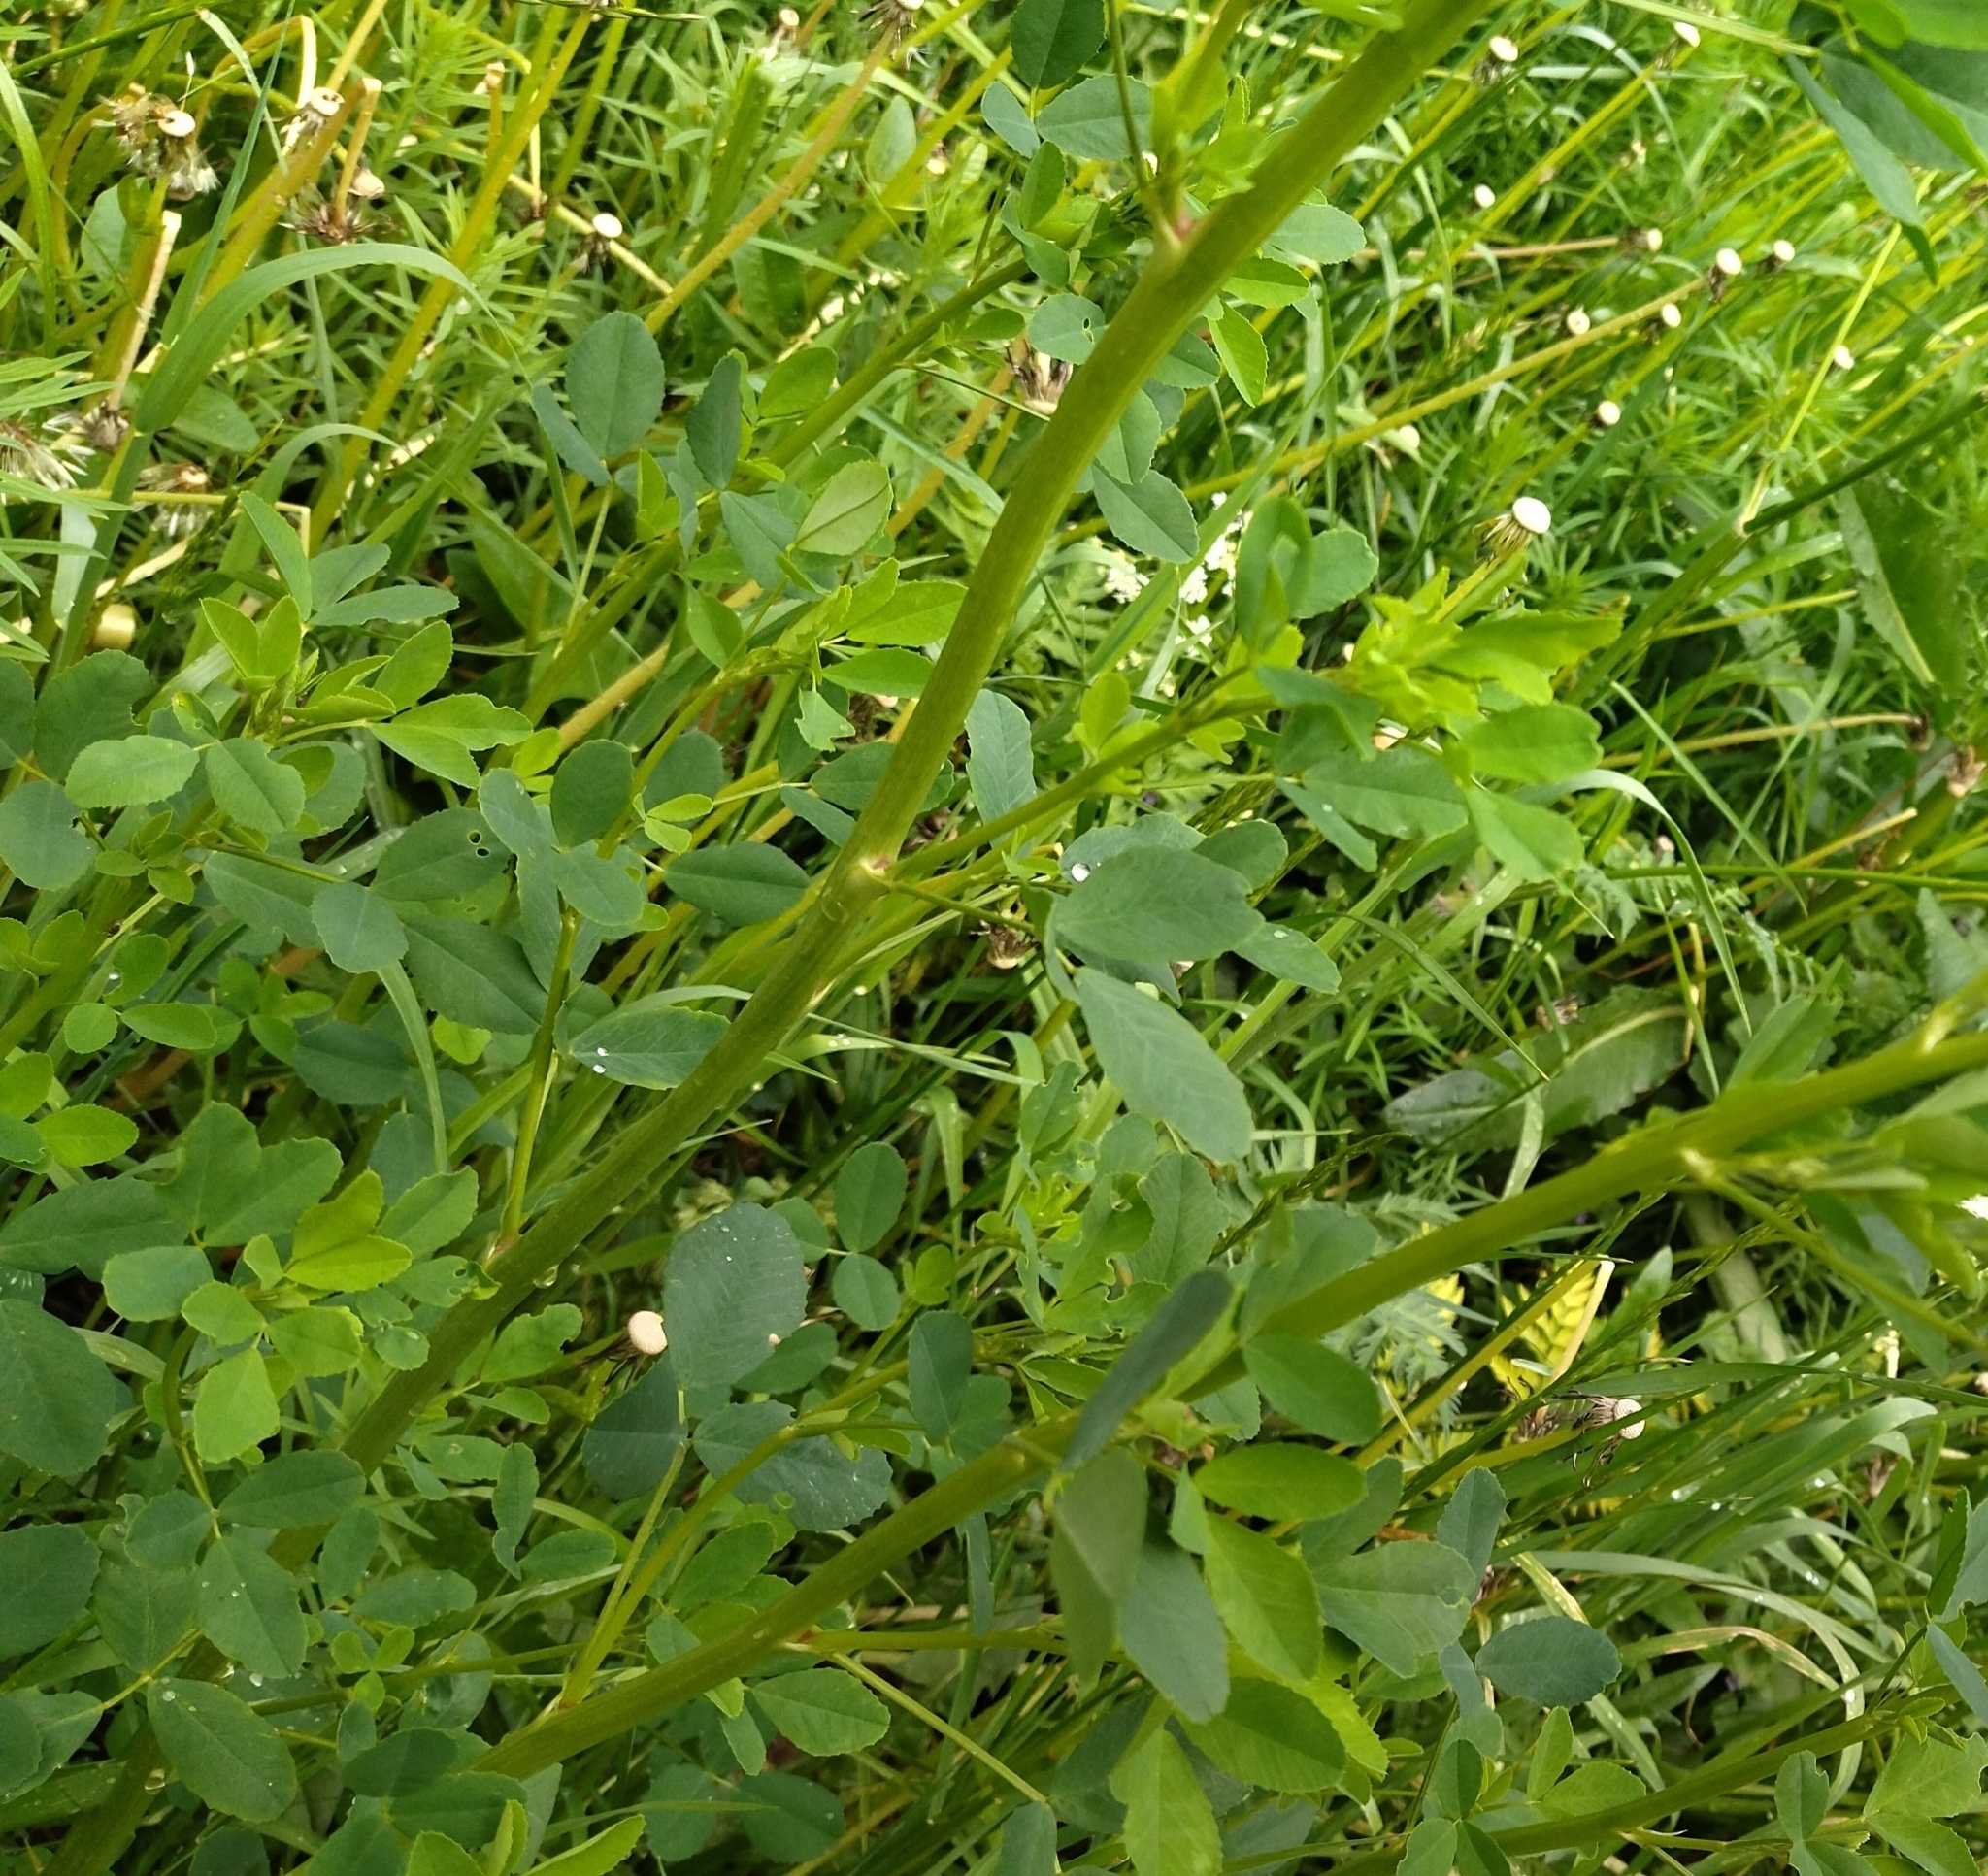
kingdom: Plantae
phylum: Tracheophyta
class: Magnoliopsida
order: Fabales
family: Fabaceae
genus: Melilotus
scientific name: Melilotus
